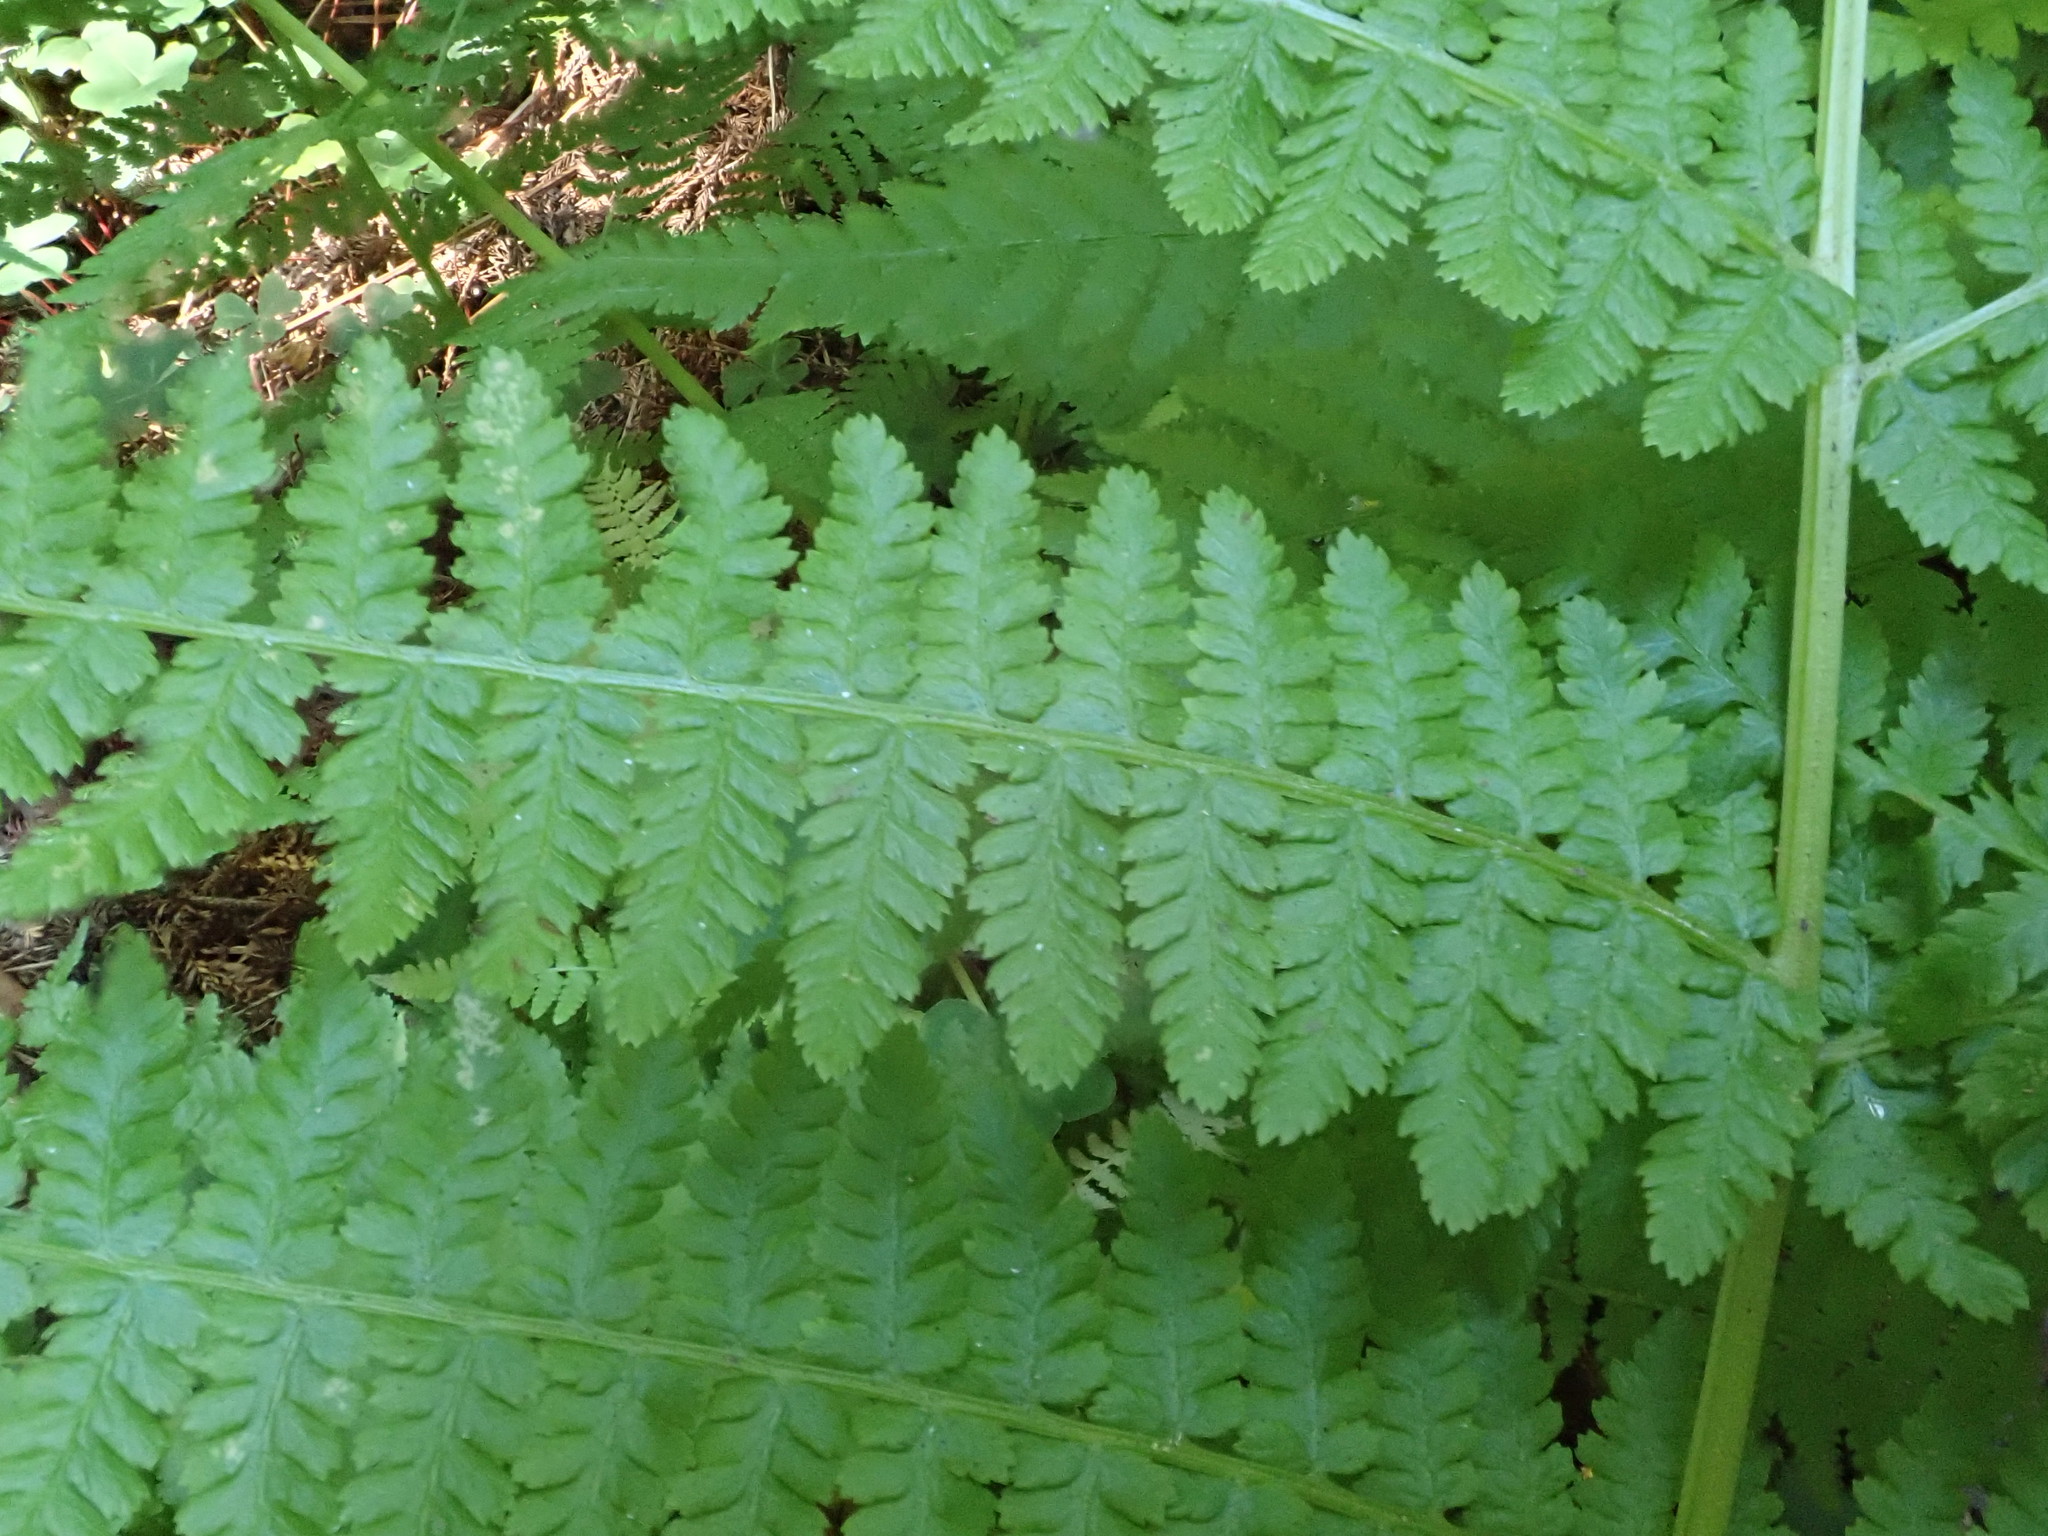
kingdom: Plantae
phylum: Tracheophyta
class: Polypodiopsida
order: Polypodiales
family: Athyriaceae
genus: Athyrium
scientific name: Athyrium filix-femina
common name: Lady fern
